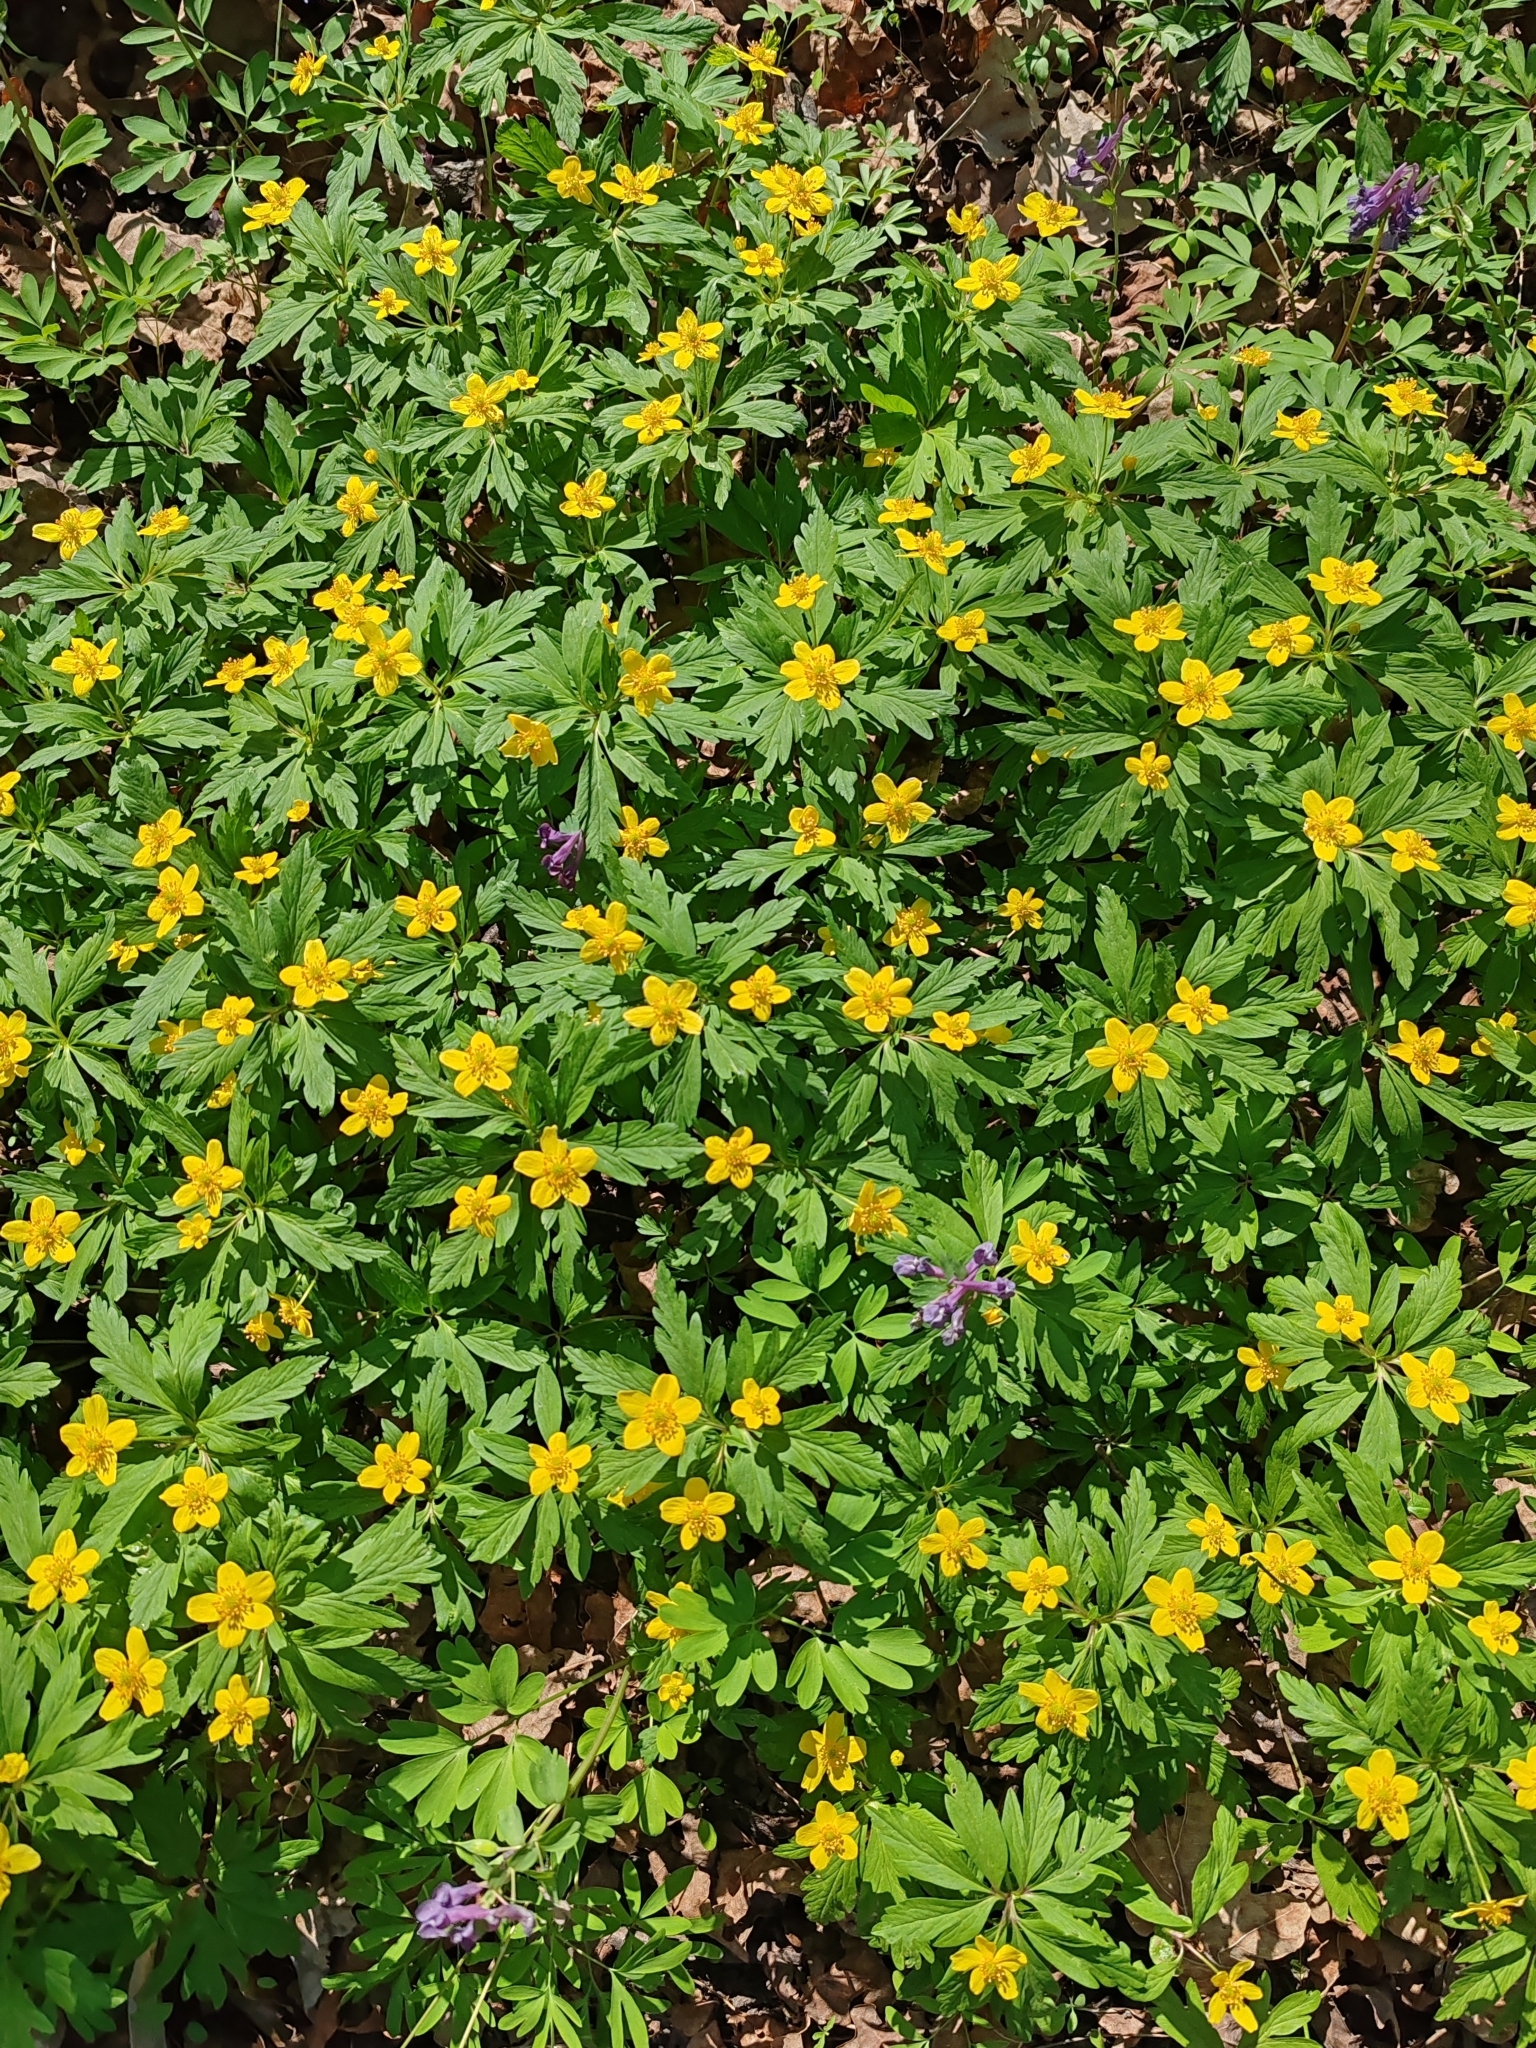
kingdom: Plantae
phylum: Tracheophyta
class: Magnoliopsida
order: Ranunculales
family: Ranunculaceae
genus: Anemone
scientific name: Anemone ranunculoides
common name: Yellow anemone
